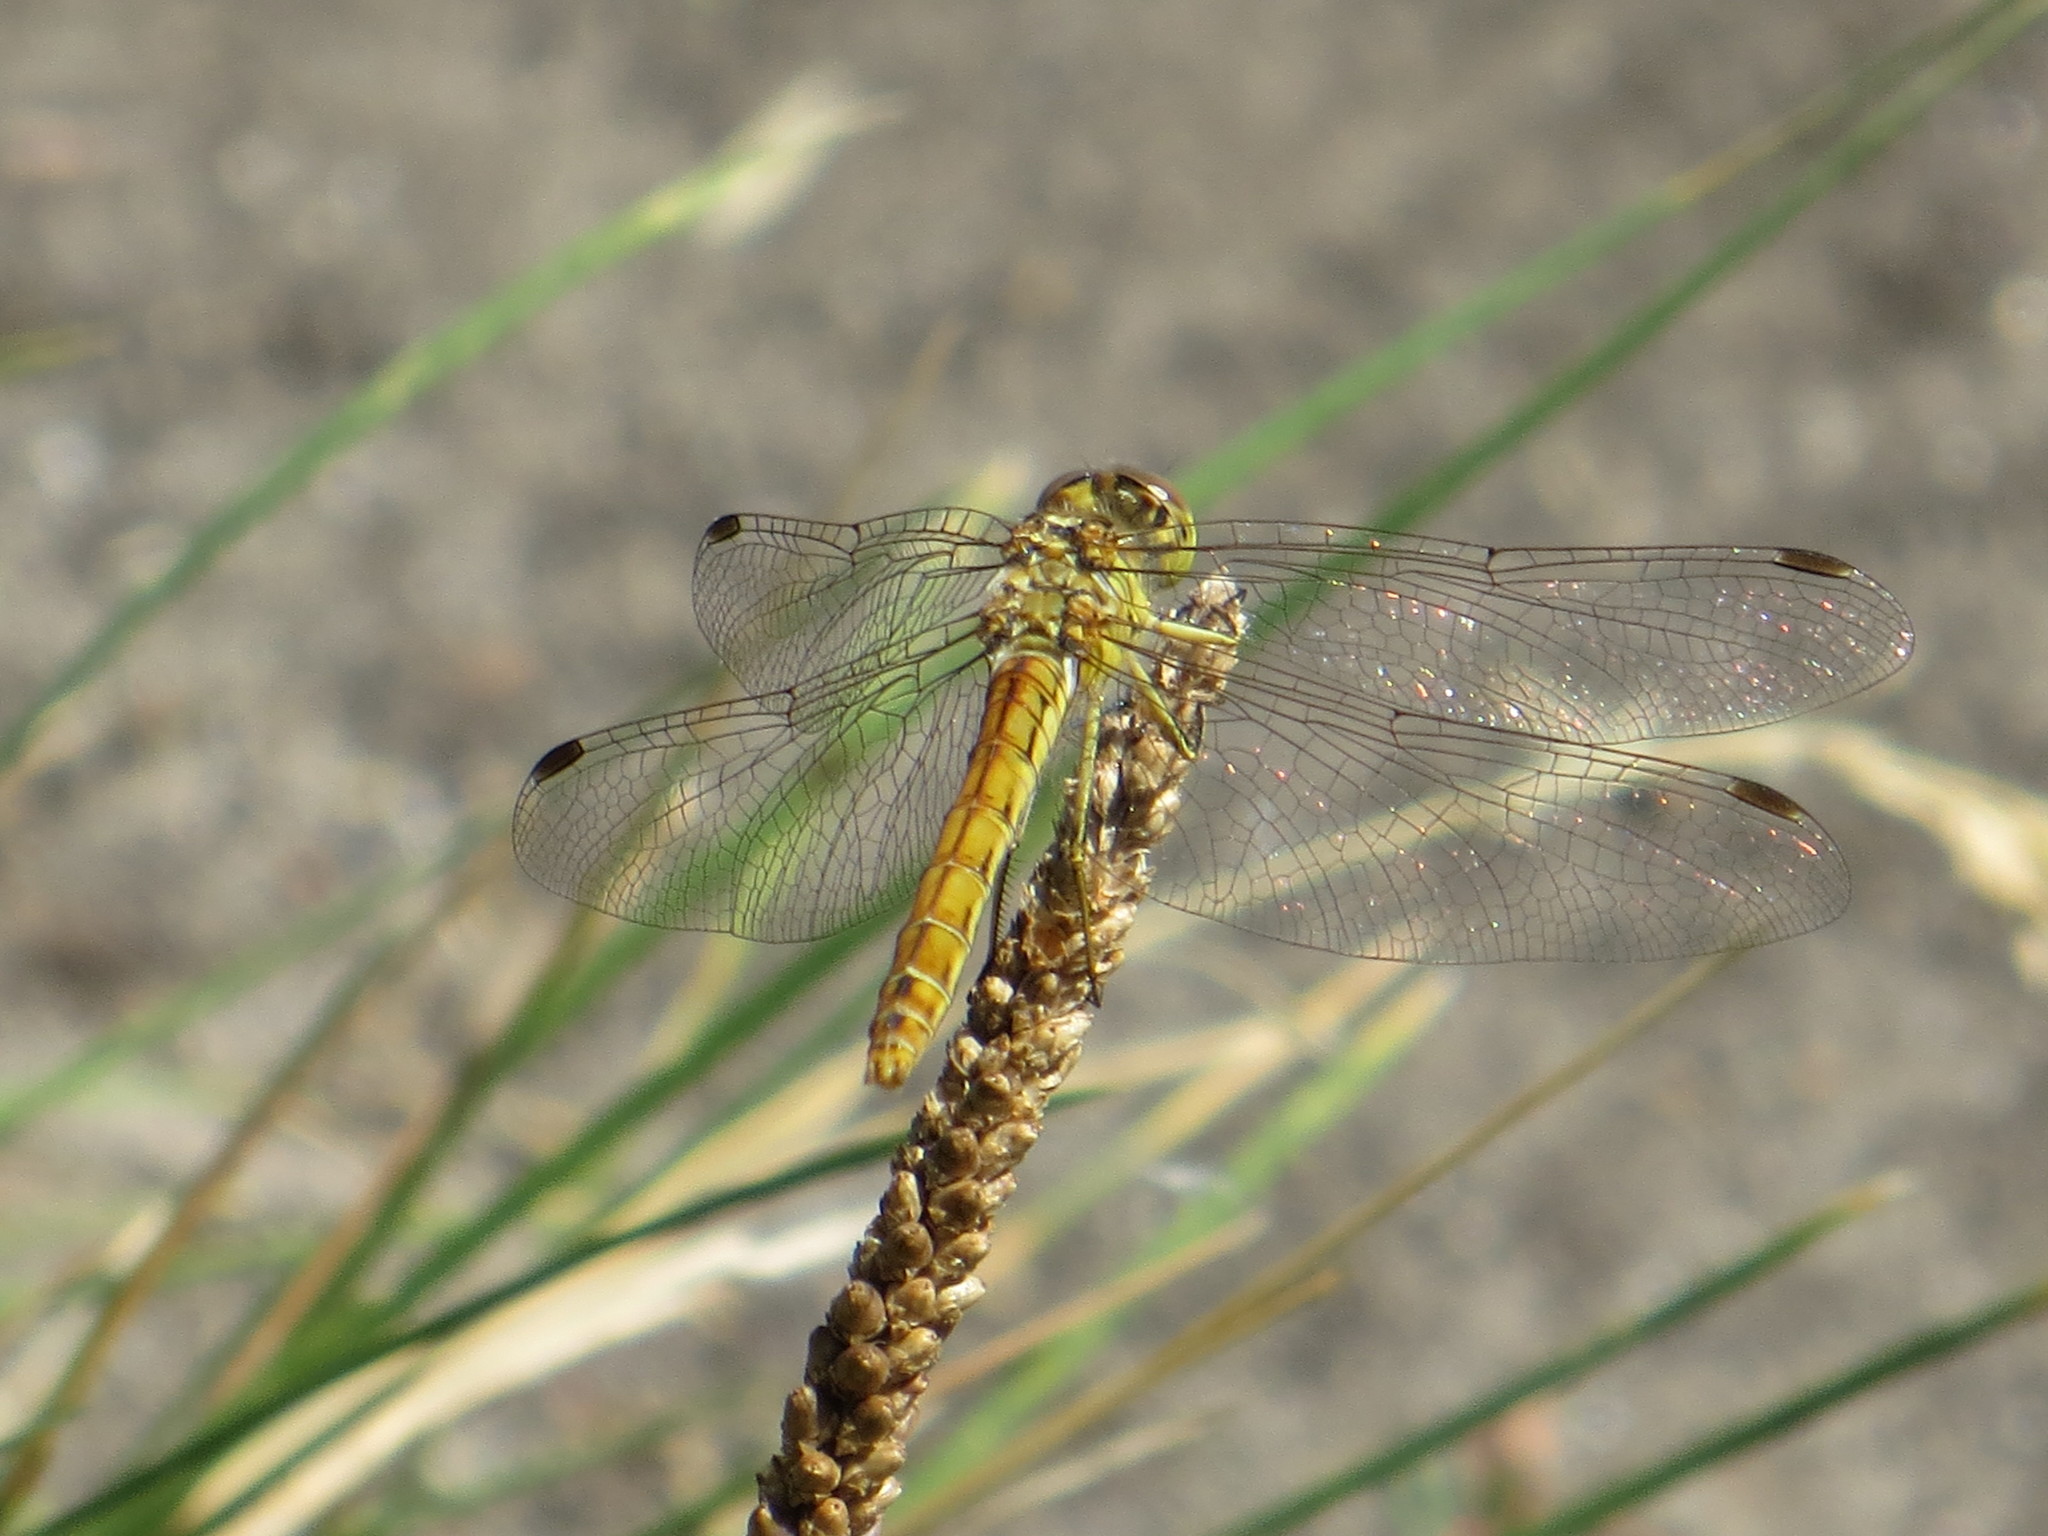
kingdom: Animalia
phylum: Arthropoda
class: Insecta
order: Odonata
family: Libellulidae
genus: Sympetrum
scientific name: Sympetrum meridionale
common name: Southern darter
